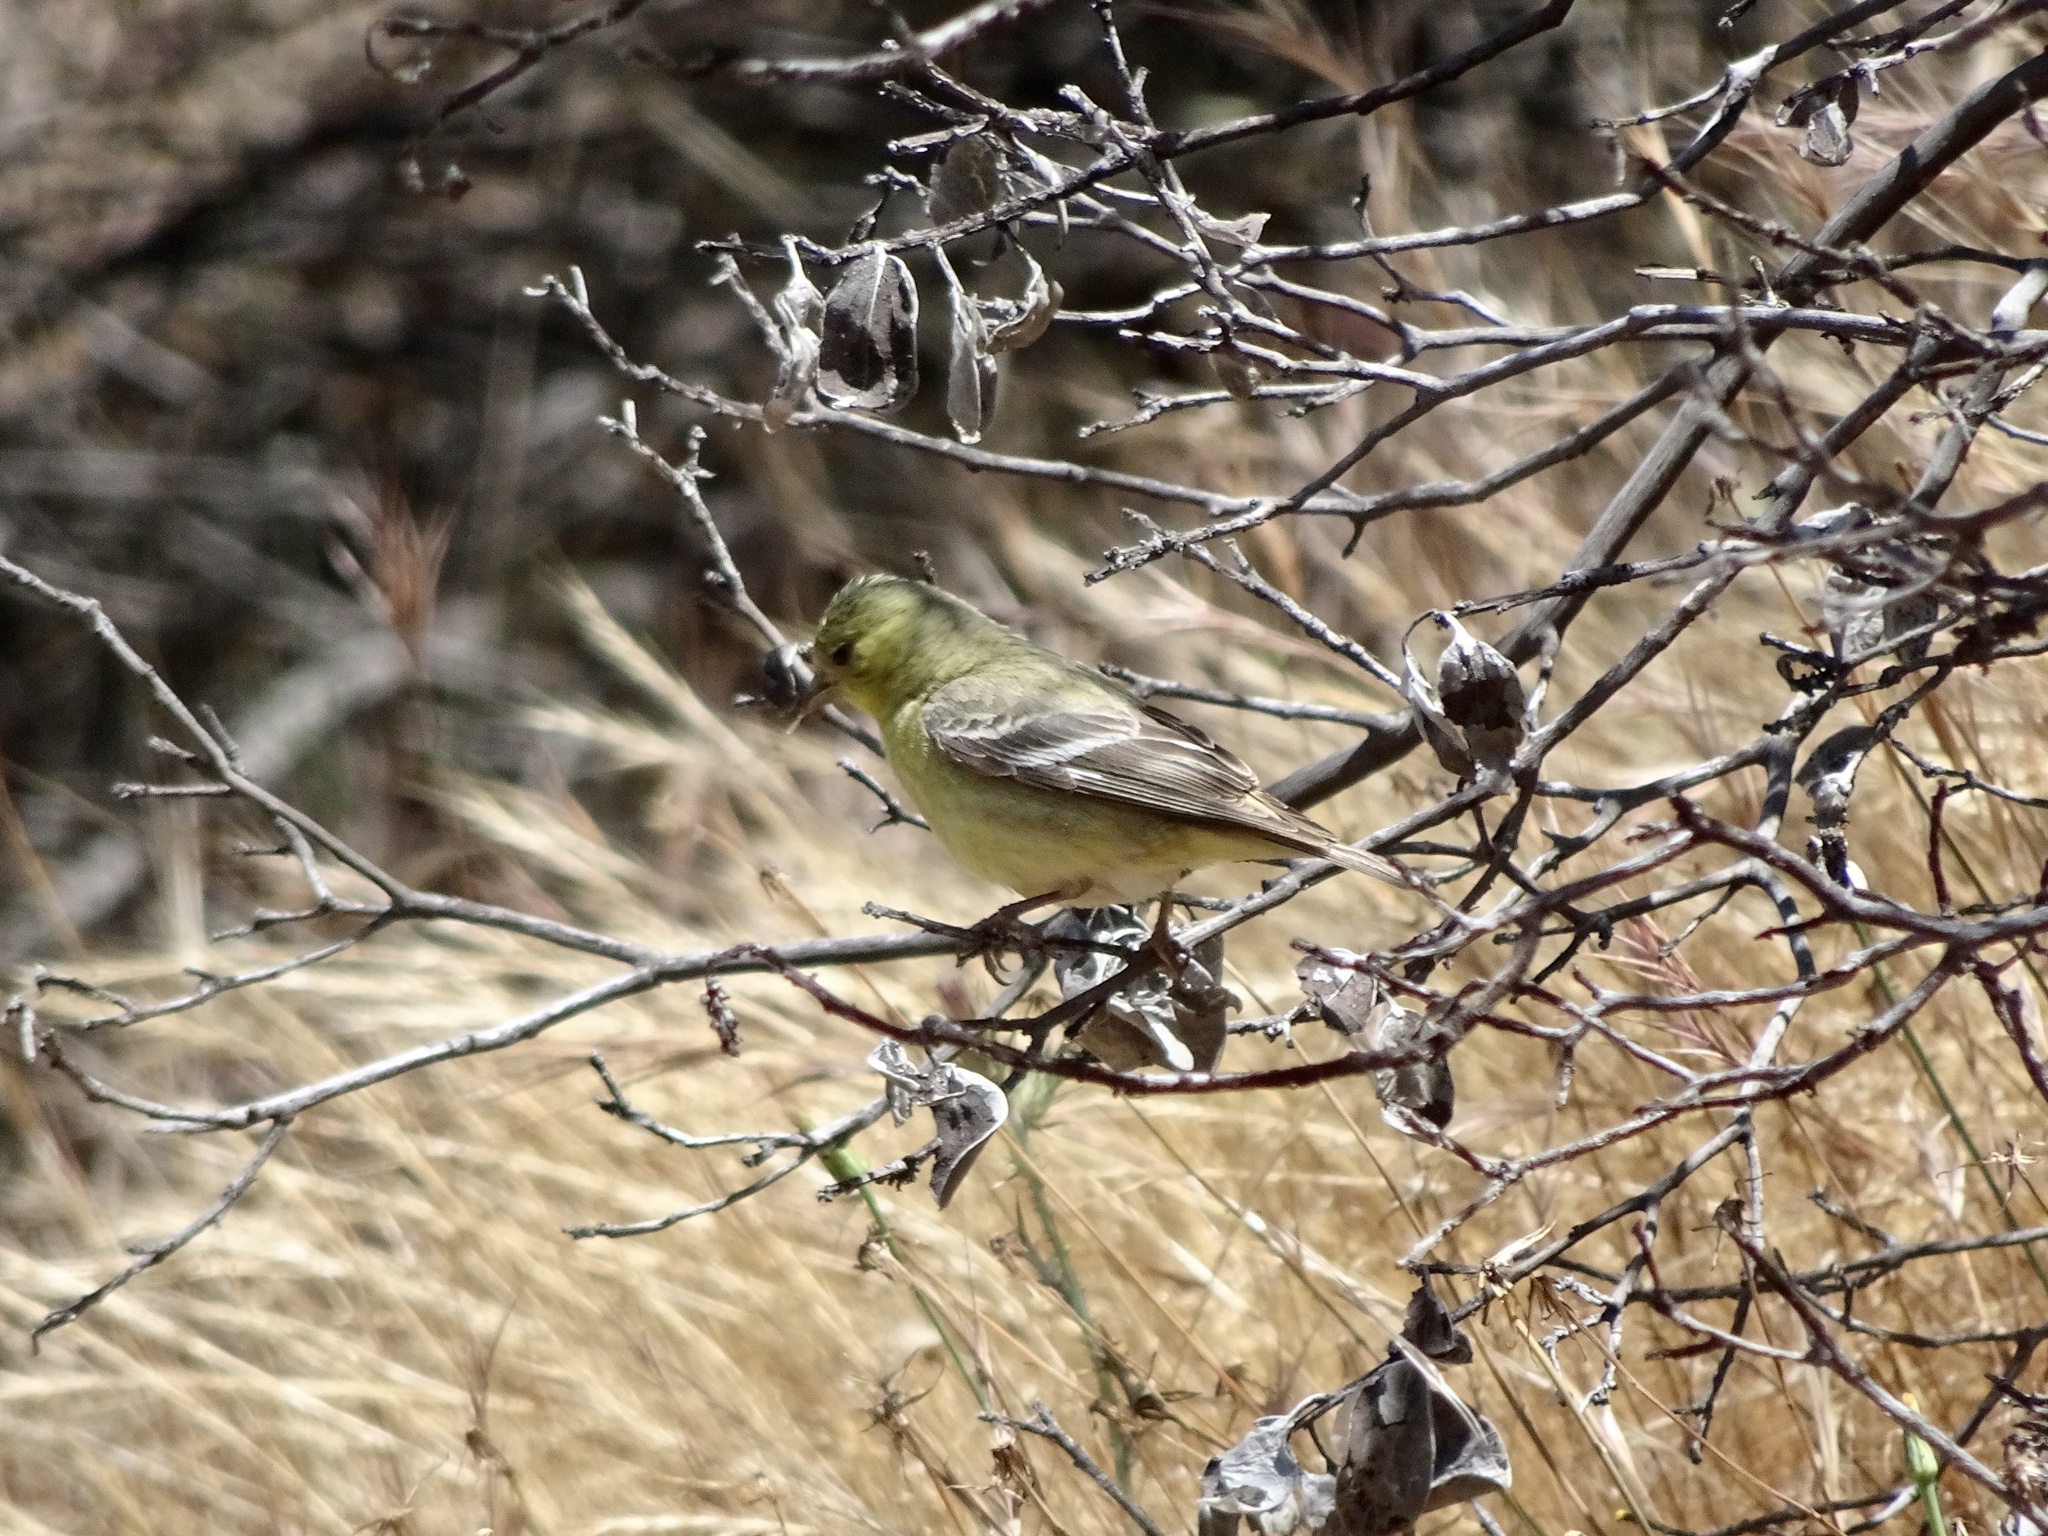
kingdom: Animalia
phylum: Chordata
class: Aves
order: Passeriformes
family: Fringillidae
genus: Spinus
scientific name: Spinus psaltria
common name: Lesser goldfinch
